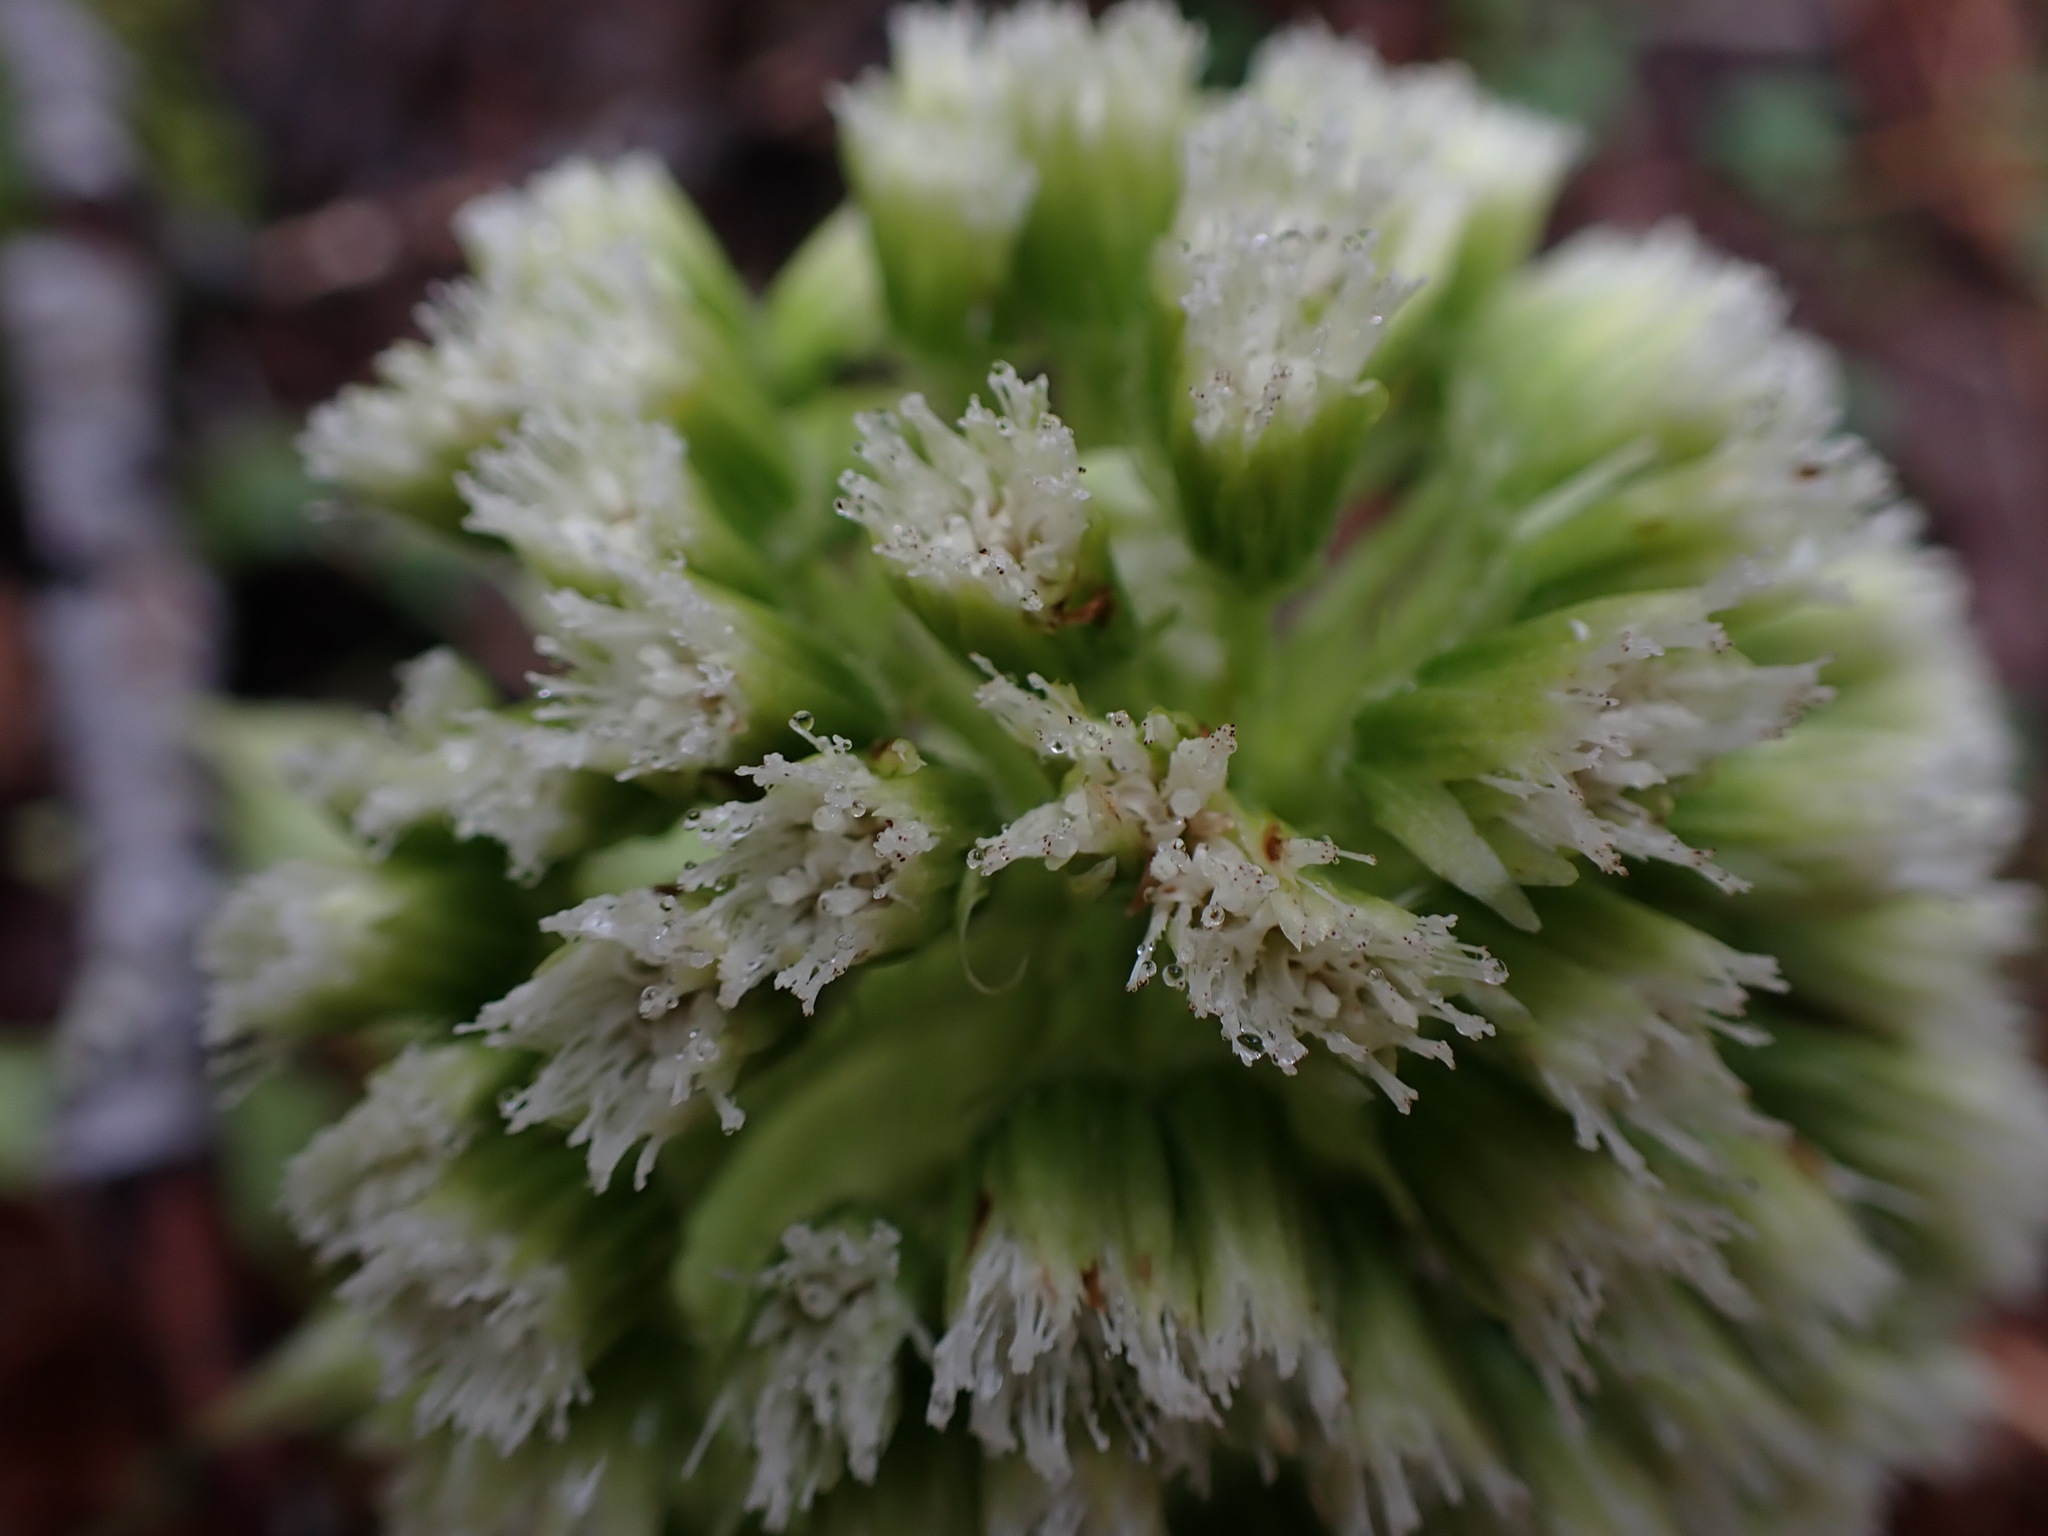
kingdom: Plantae
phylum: Tracheophyta
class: Magnoliopsida
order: Asterales
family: Asteraceae
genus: Petasites
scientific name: Petasites japonicus
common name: Giant butterbur
